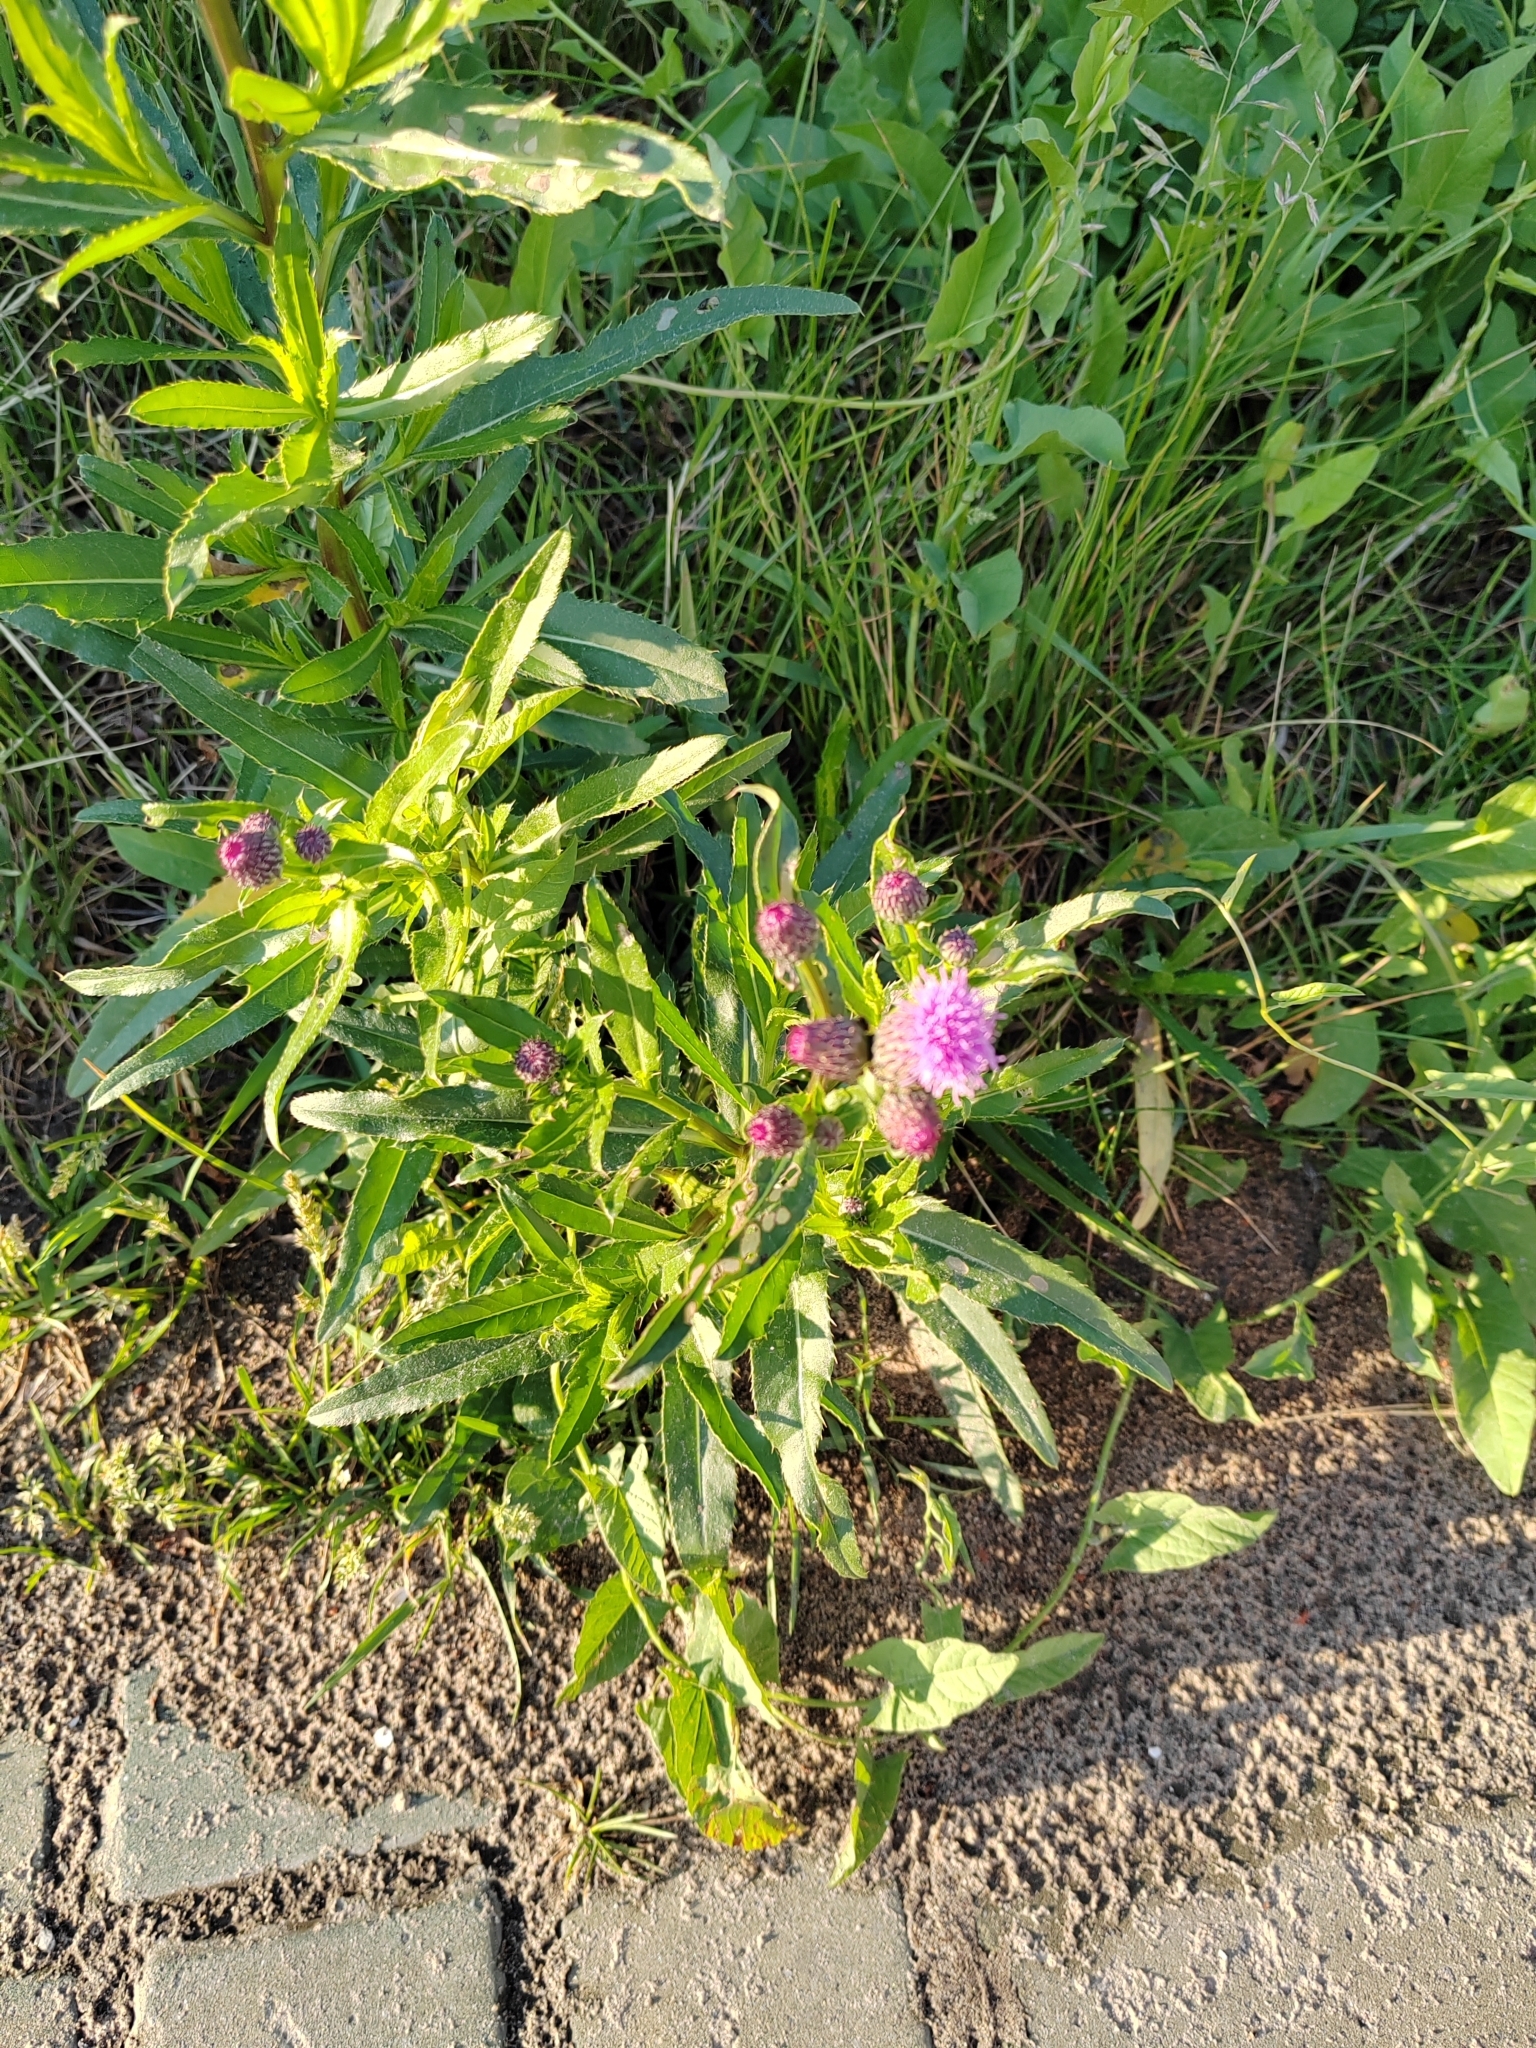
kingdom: Plantae
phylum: Tracheophyta
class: Magnoliopsida
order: Asterales
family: Asteraceae
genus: Cirsium
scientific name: Cirsium arvense
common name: Creeping thistle
